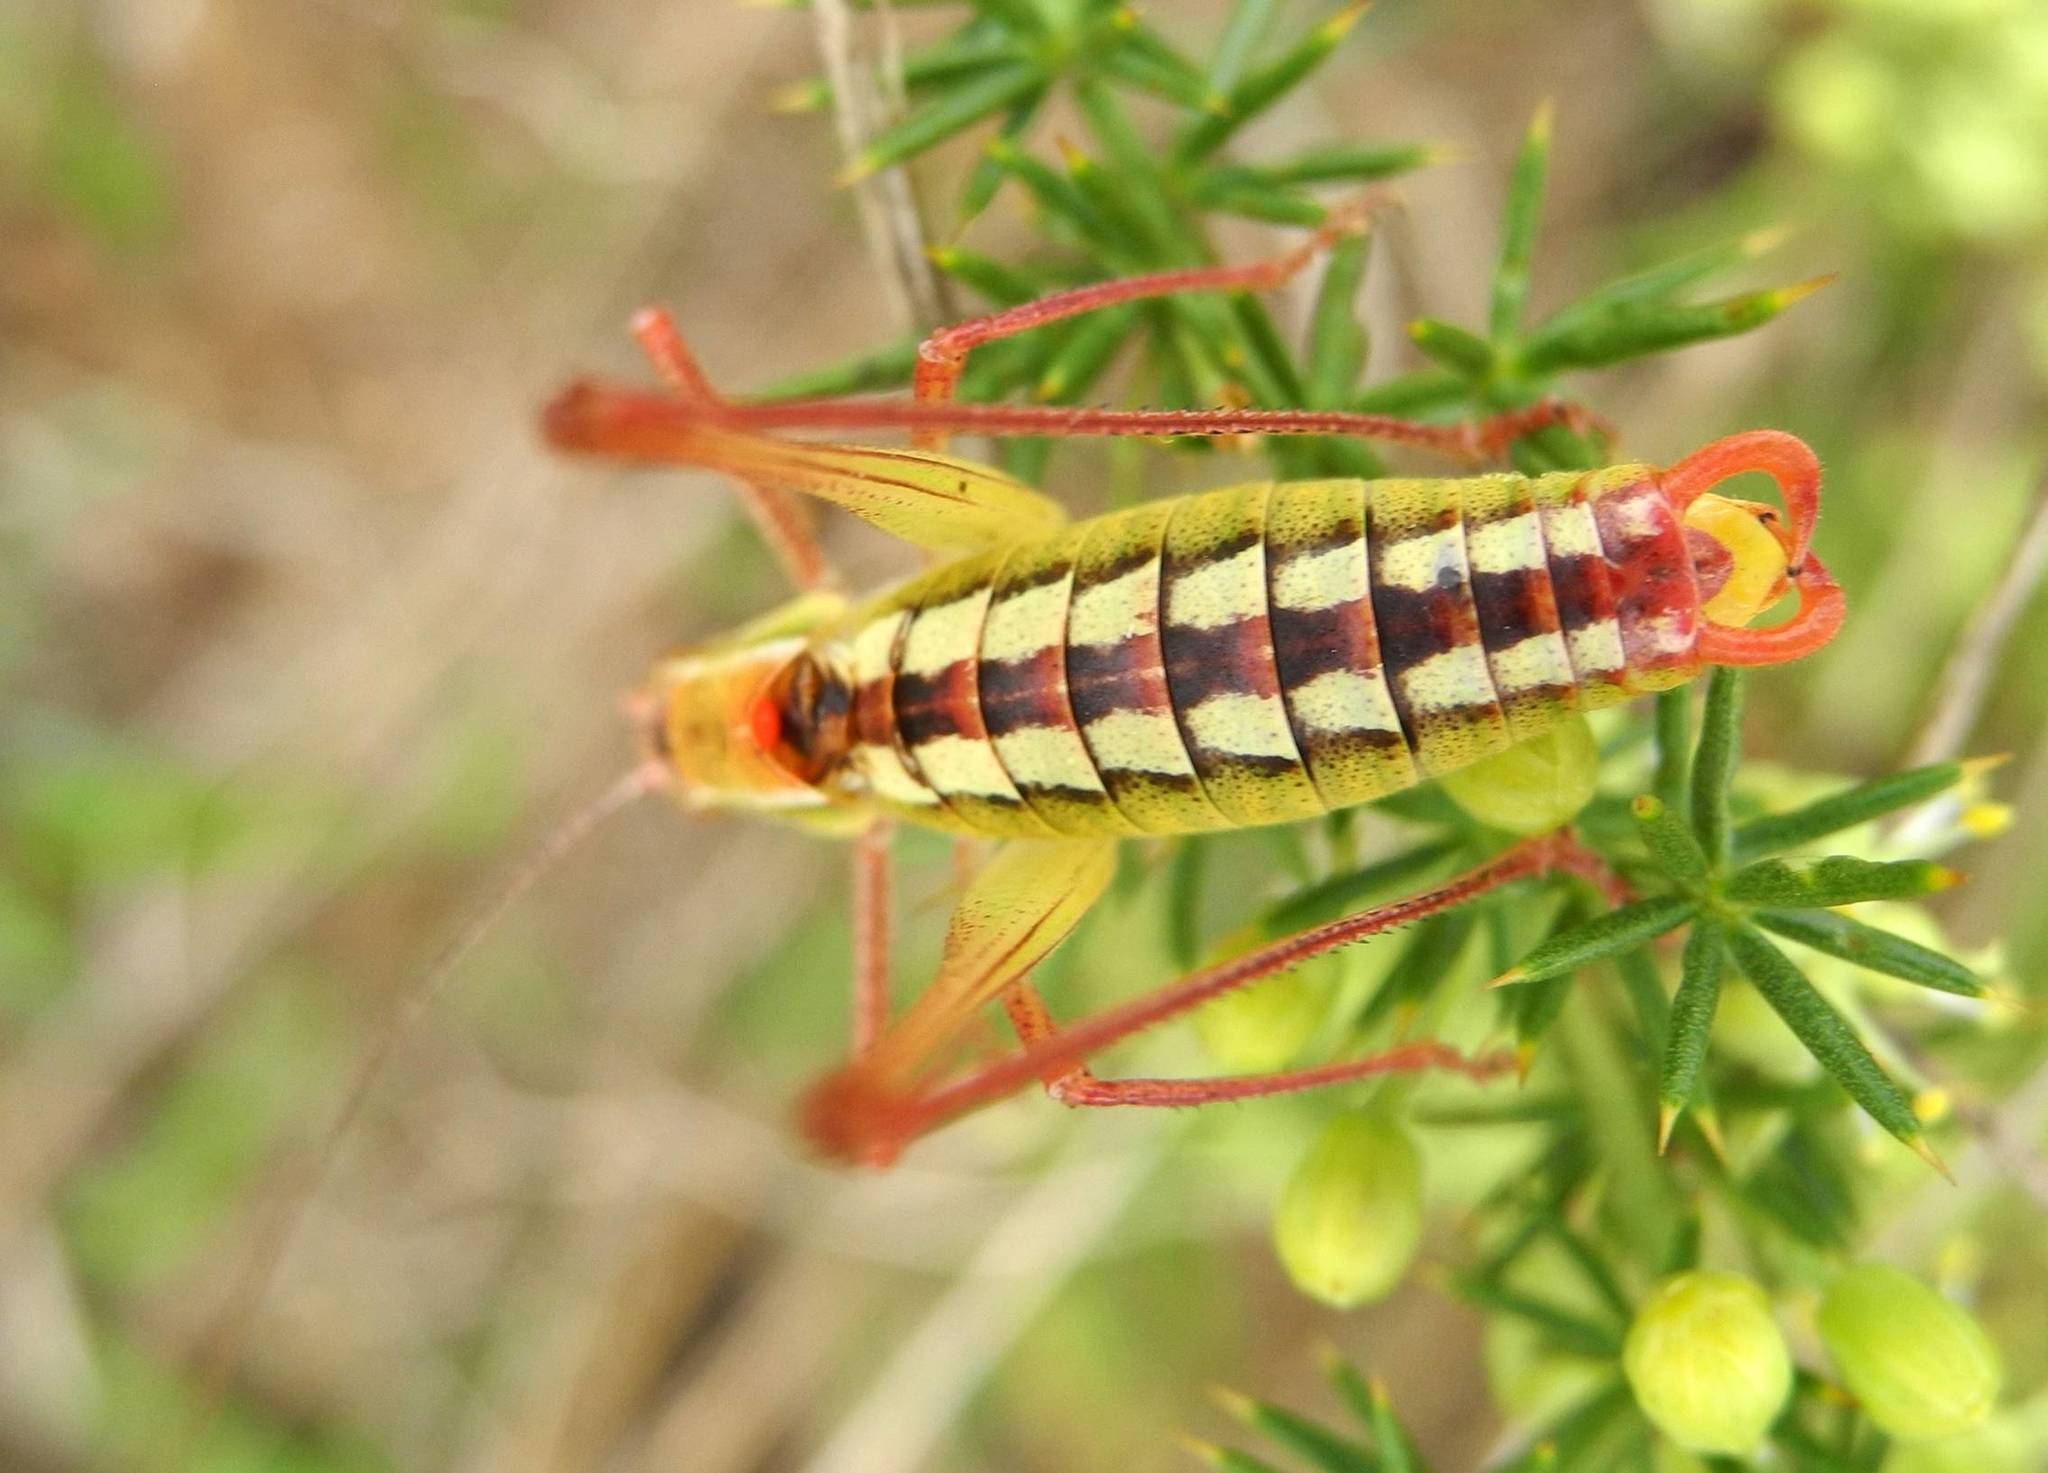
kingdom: Animalia
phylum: Arthropoda
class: Insecta
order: Orthoptera
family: Tettigoniidae
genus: Poecilimon
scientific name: Poecilimon brunneri
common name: Brunner's bright bush-cricket
